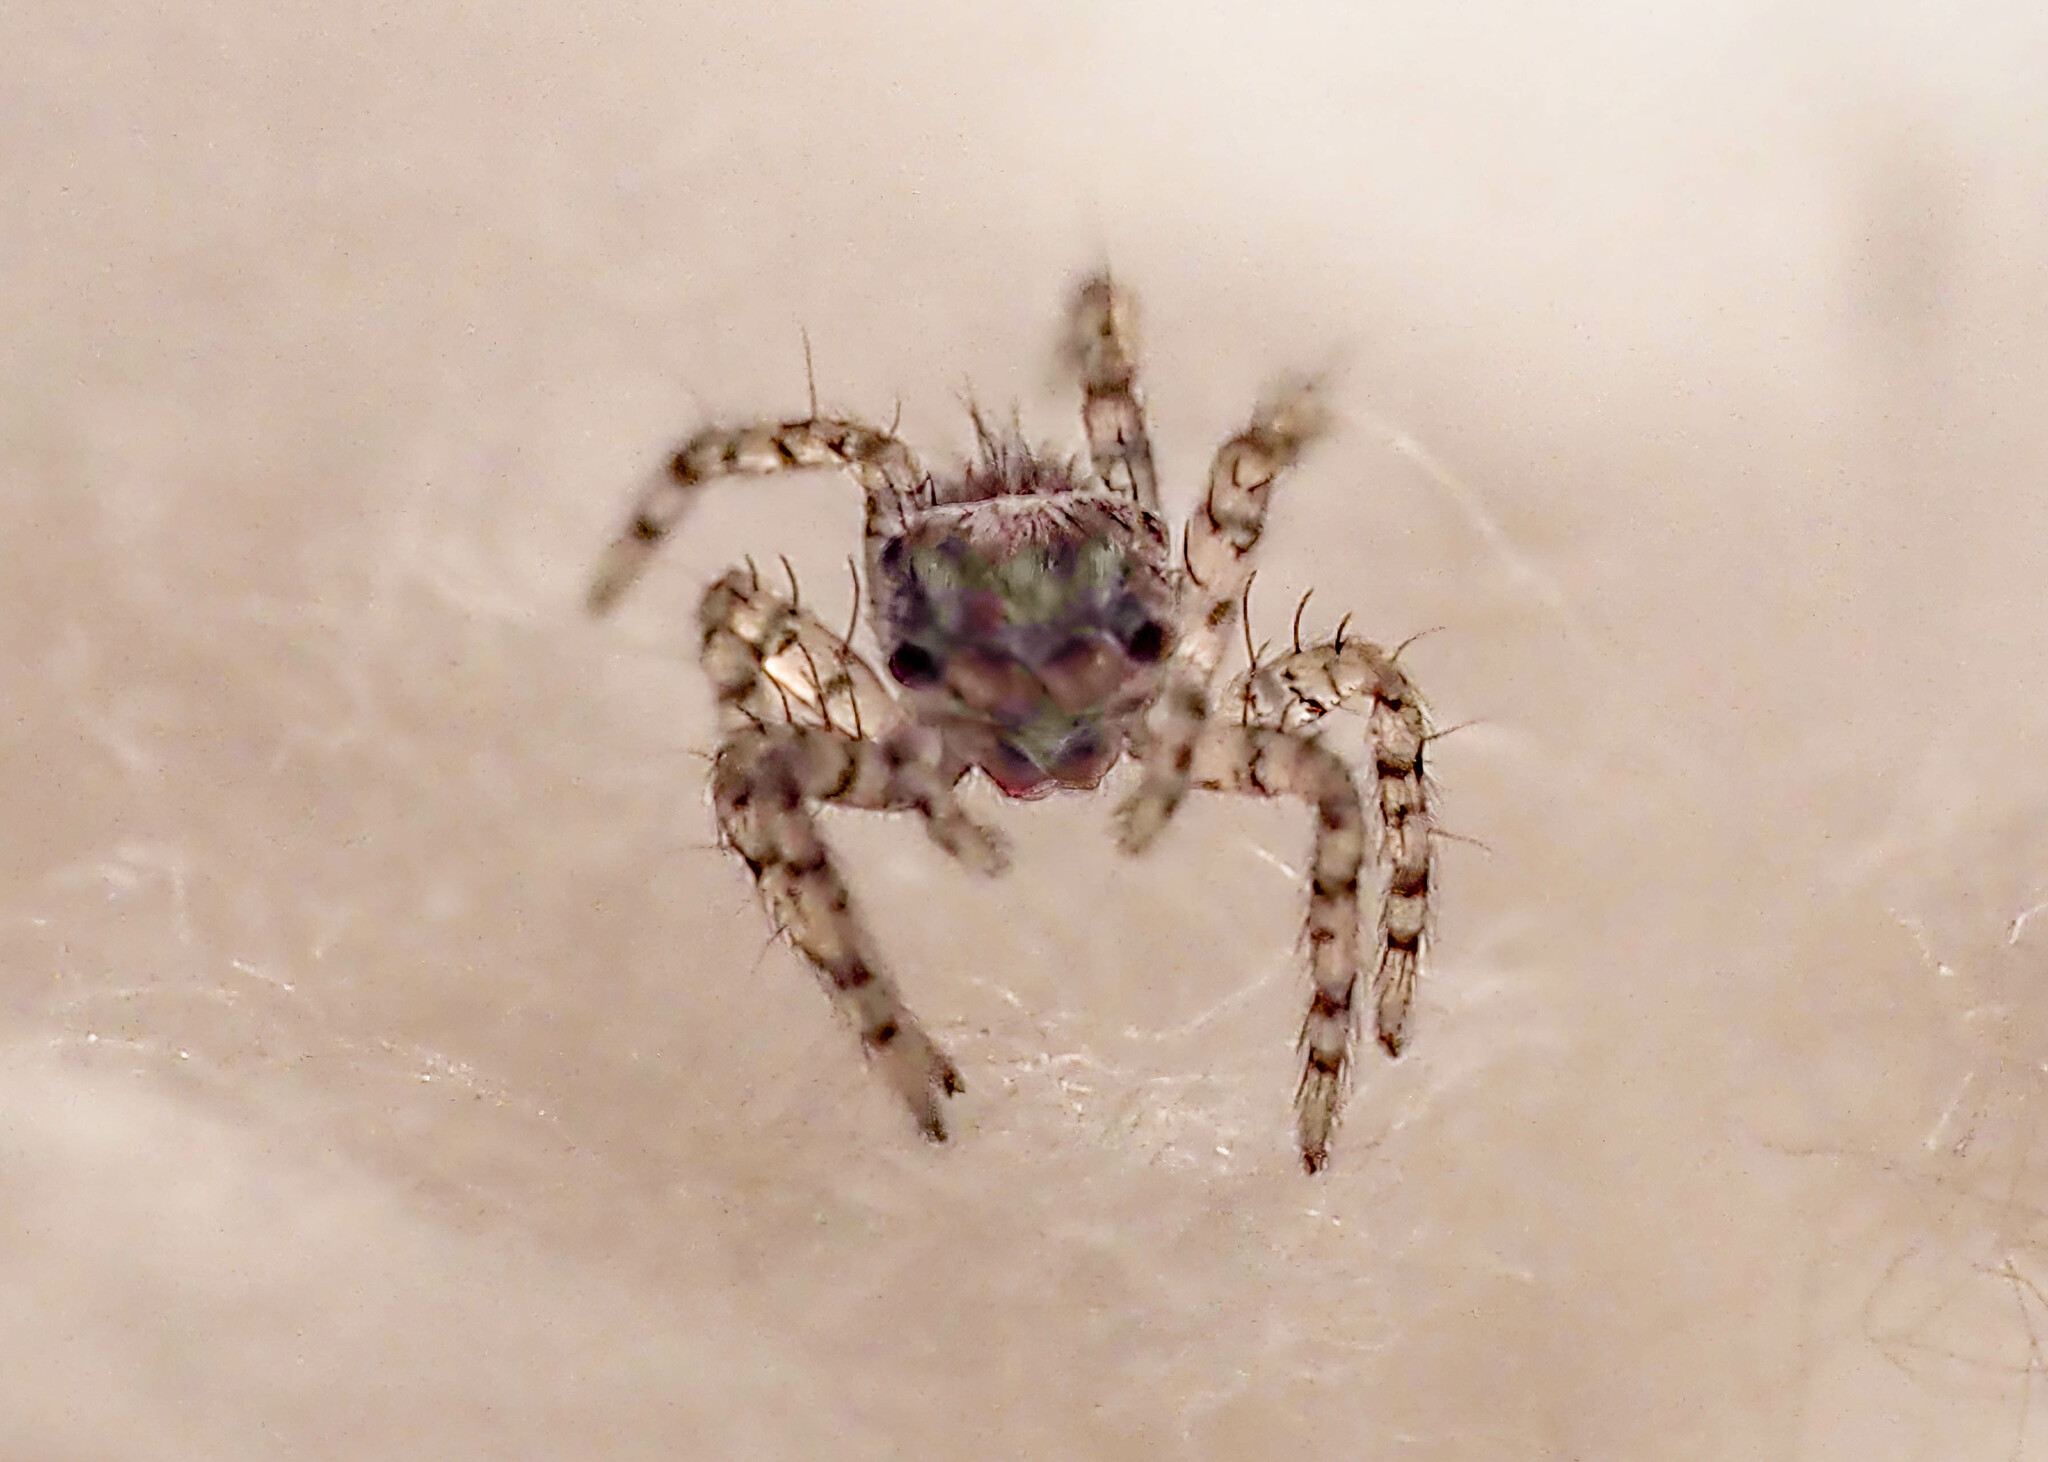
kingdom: Animalia
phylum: Arthropoda
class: Arachnida
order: Araneae
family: Salticidae
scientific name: Salticidae
